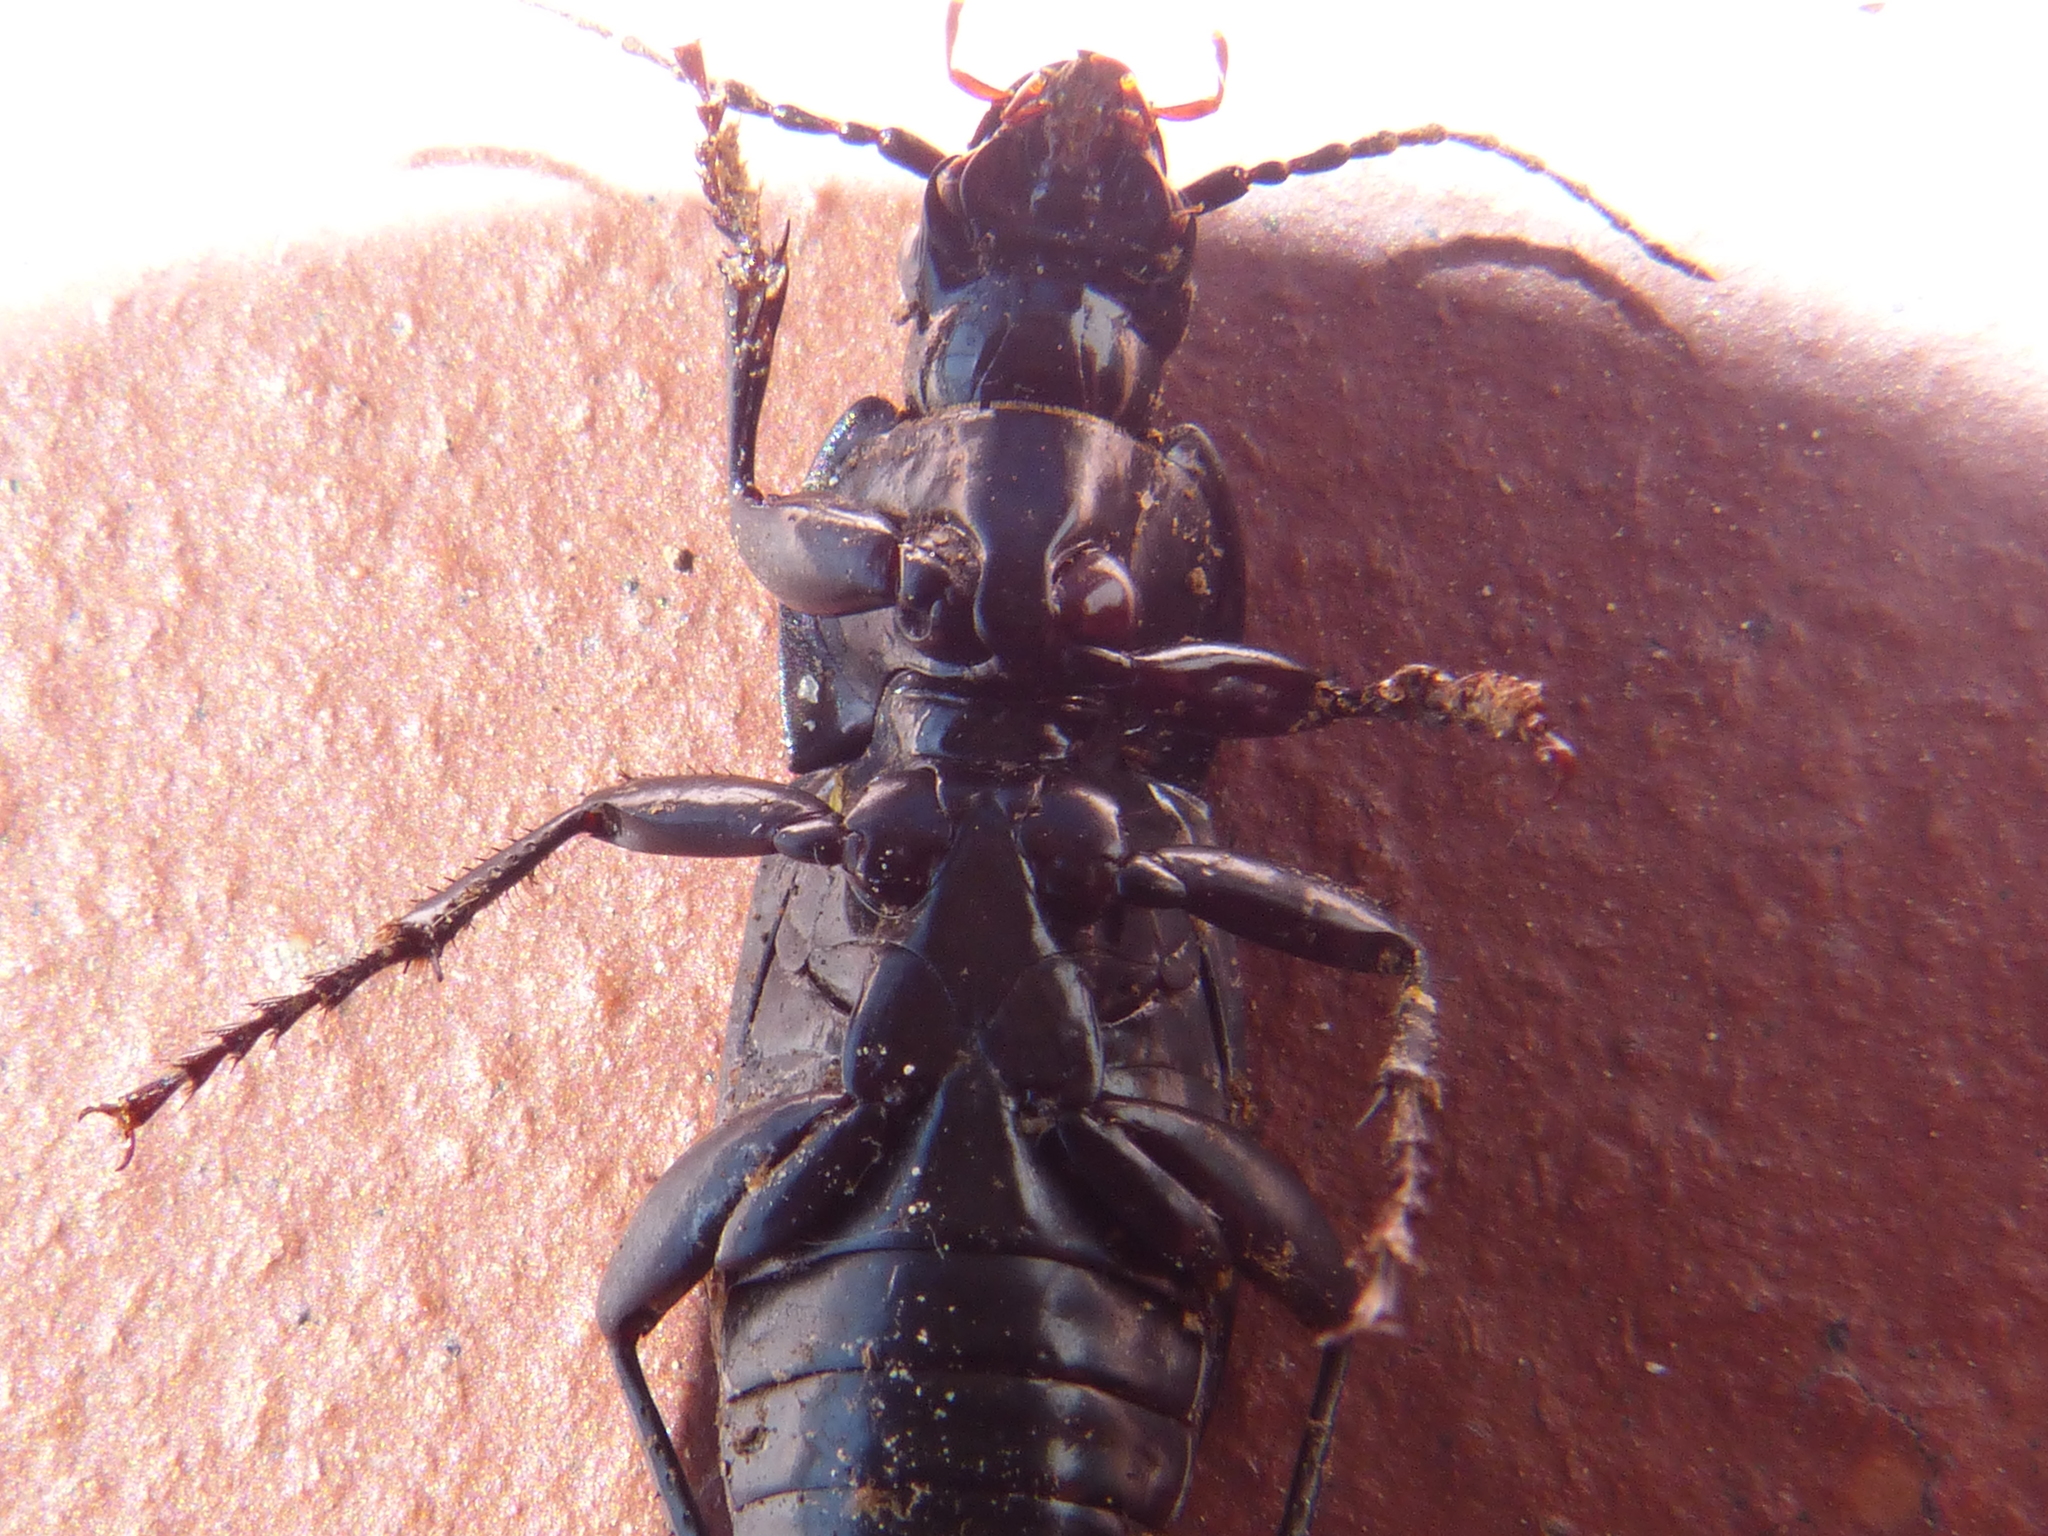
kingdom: Animalia
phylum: Arthropoda
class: Insecta
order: Coleoptera
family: Carabidae
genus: Abax
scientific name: Abax contractus
